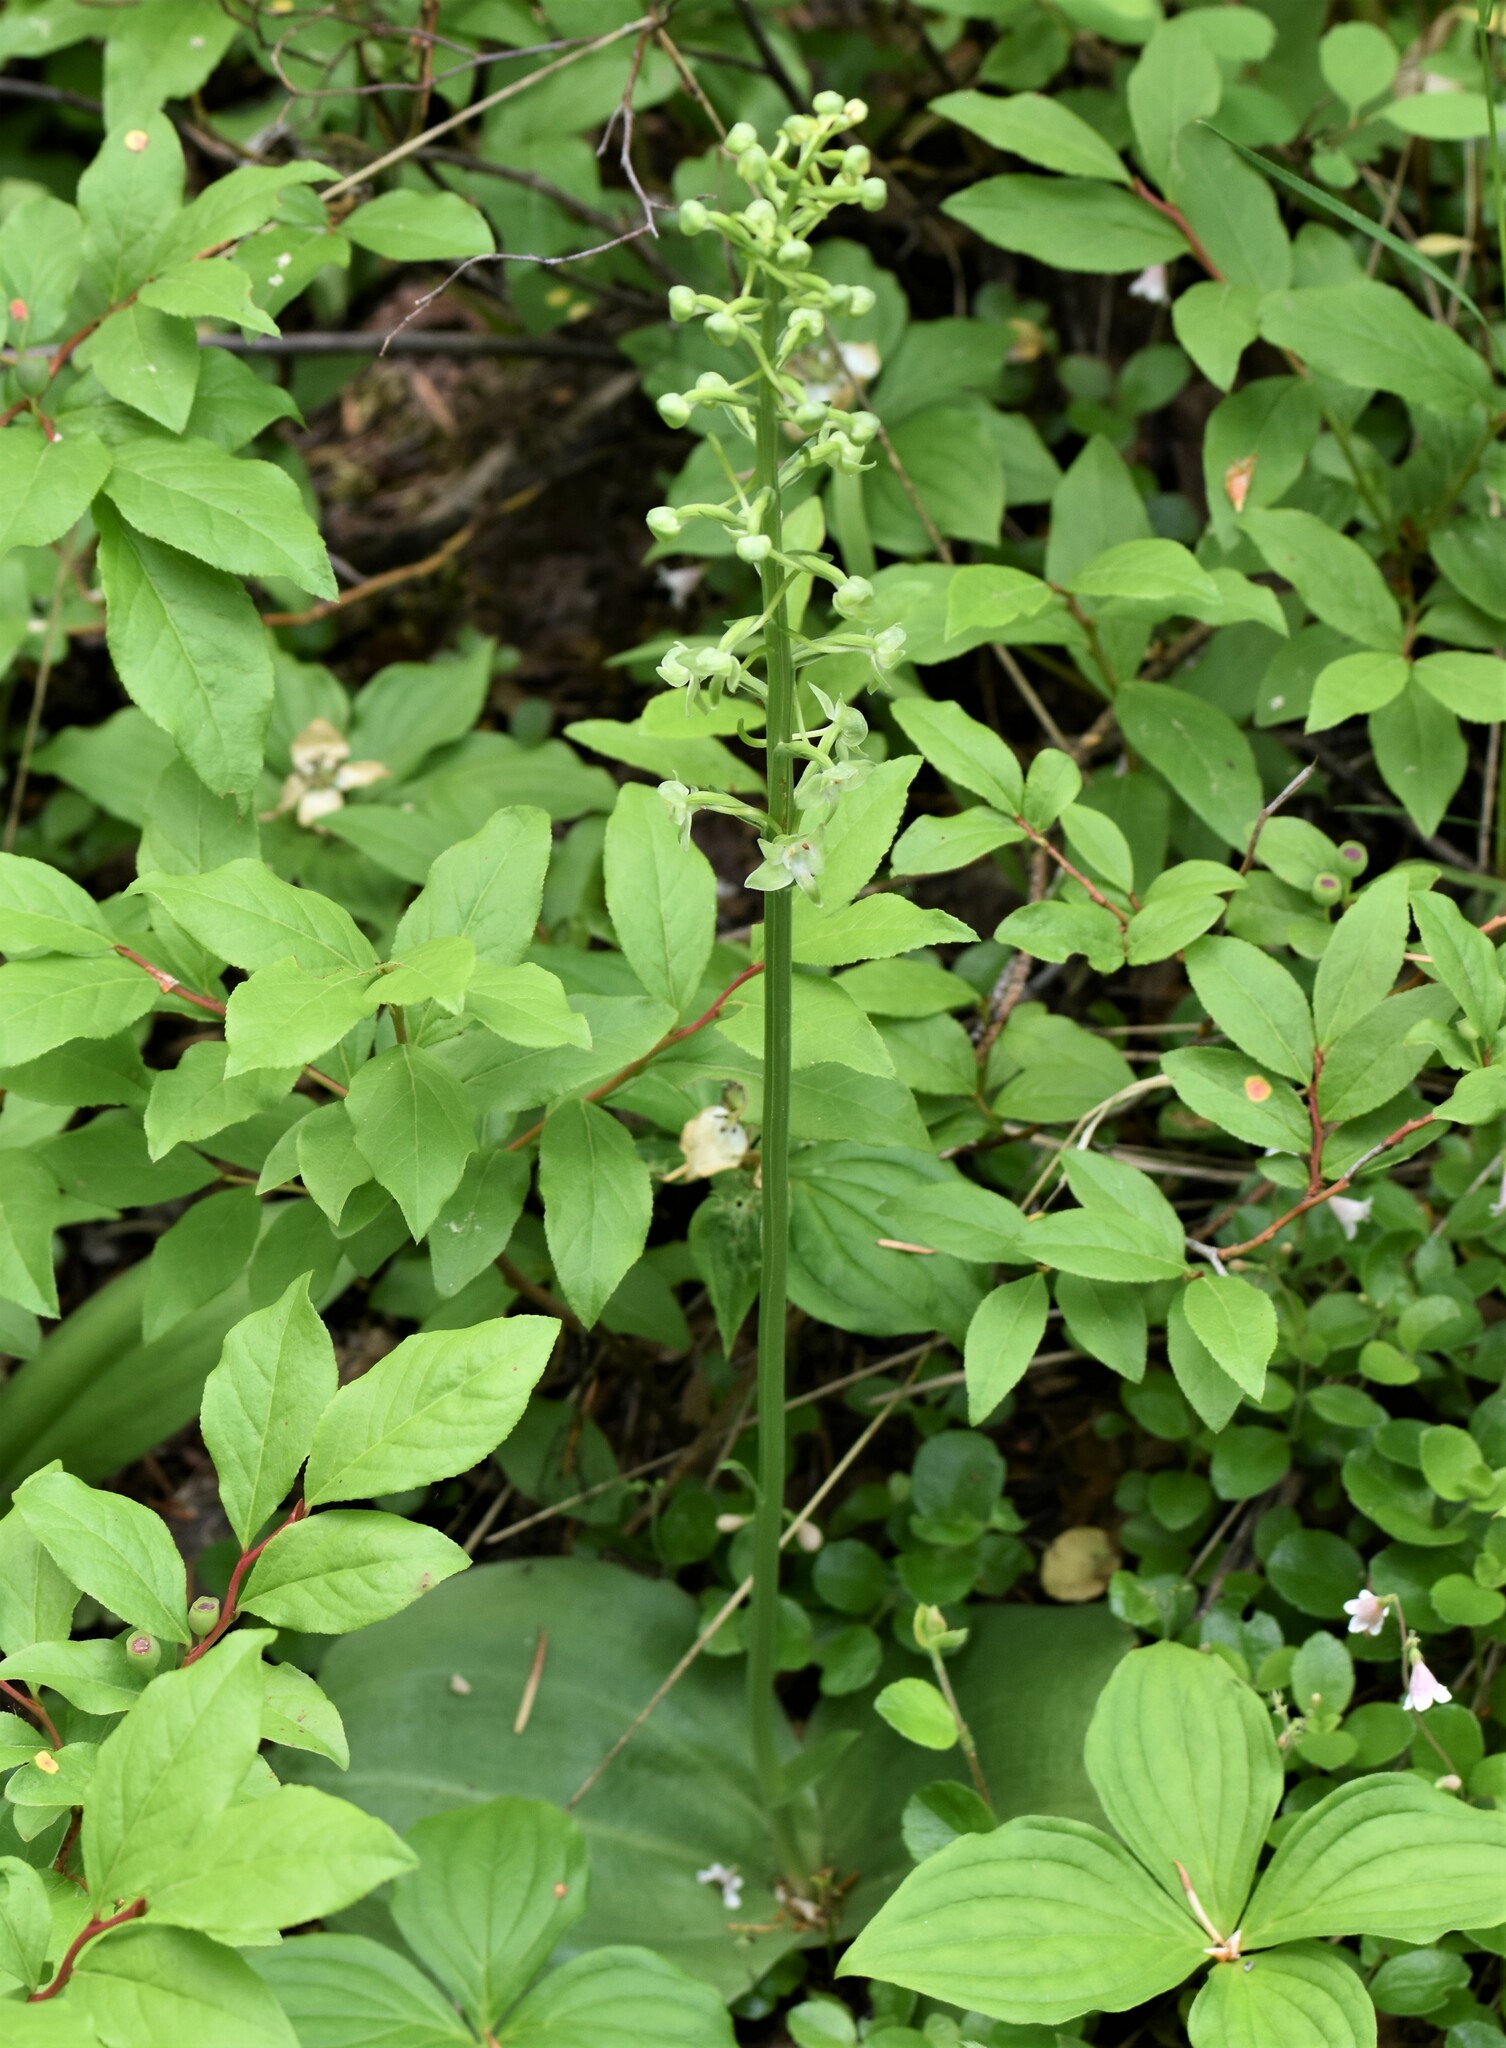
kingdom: Plantae
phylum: Tracheophyta
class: Liliopsida
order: Asparagales
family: Orchidaceae
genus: Platanthera
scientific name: Platanthera orbiculata
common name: Large round-leaved orchid
